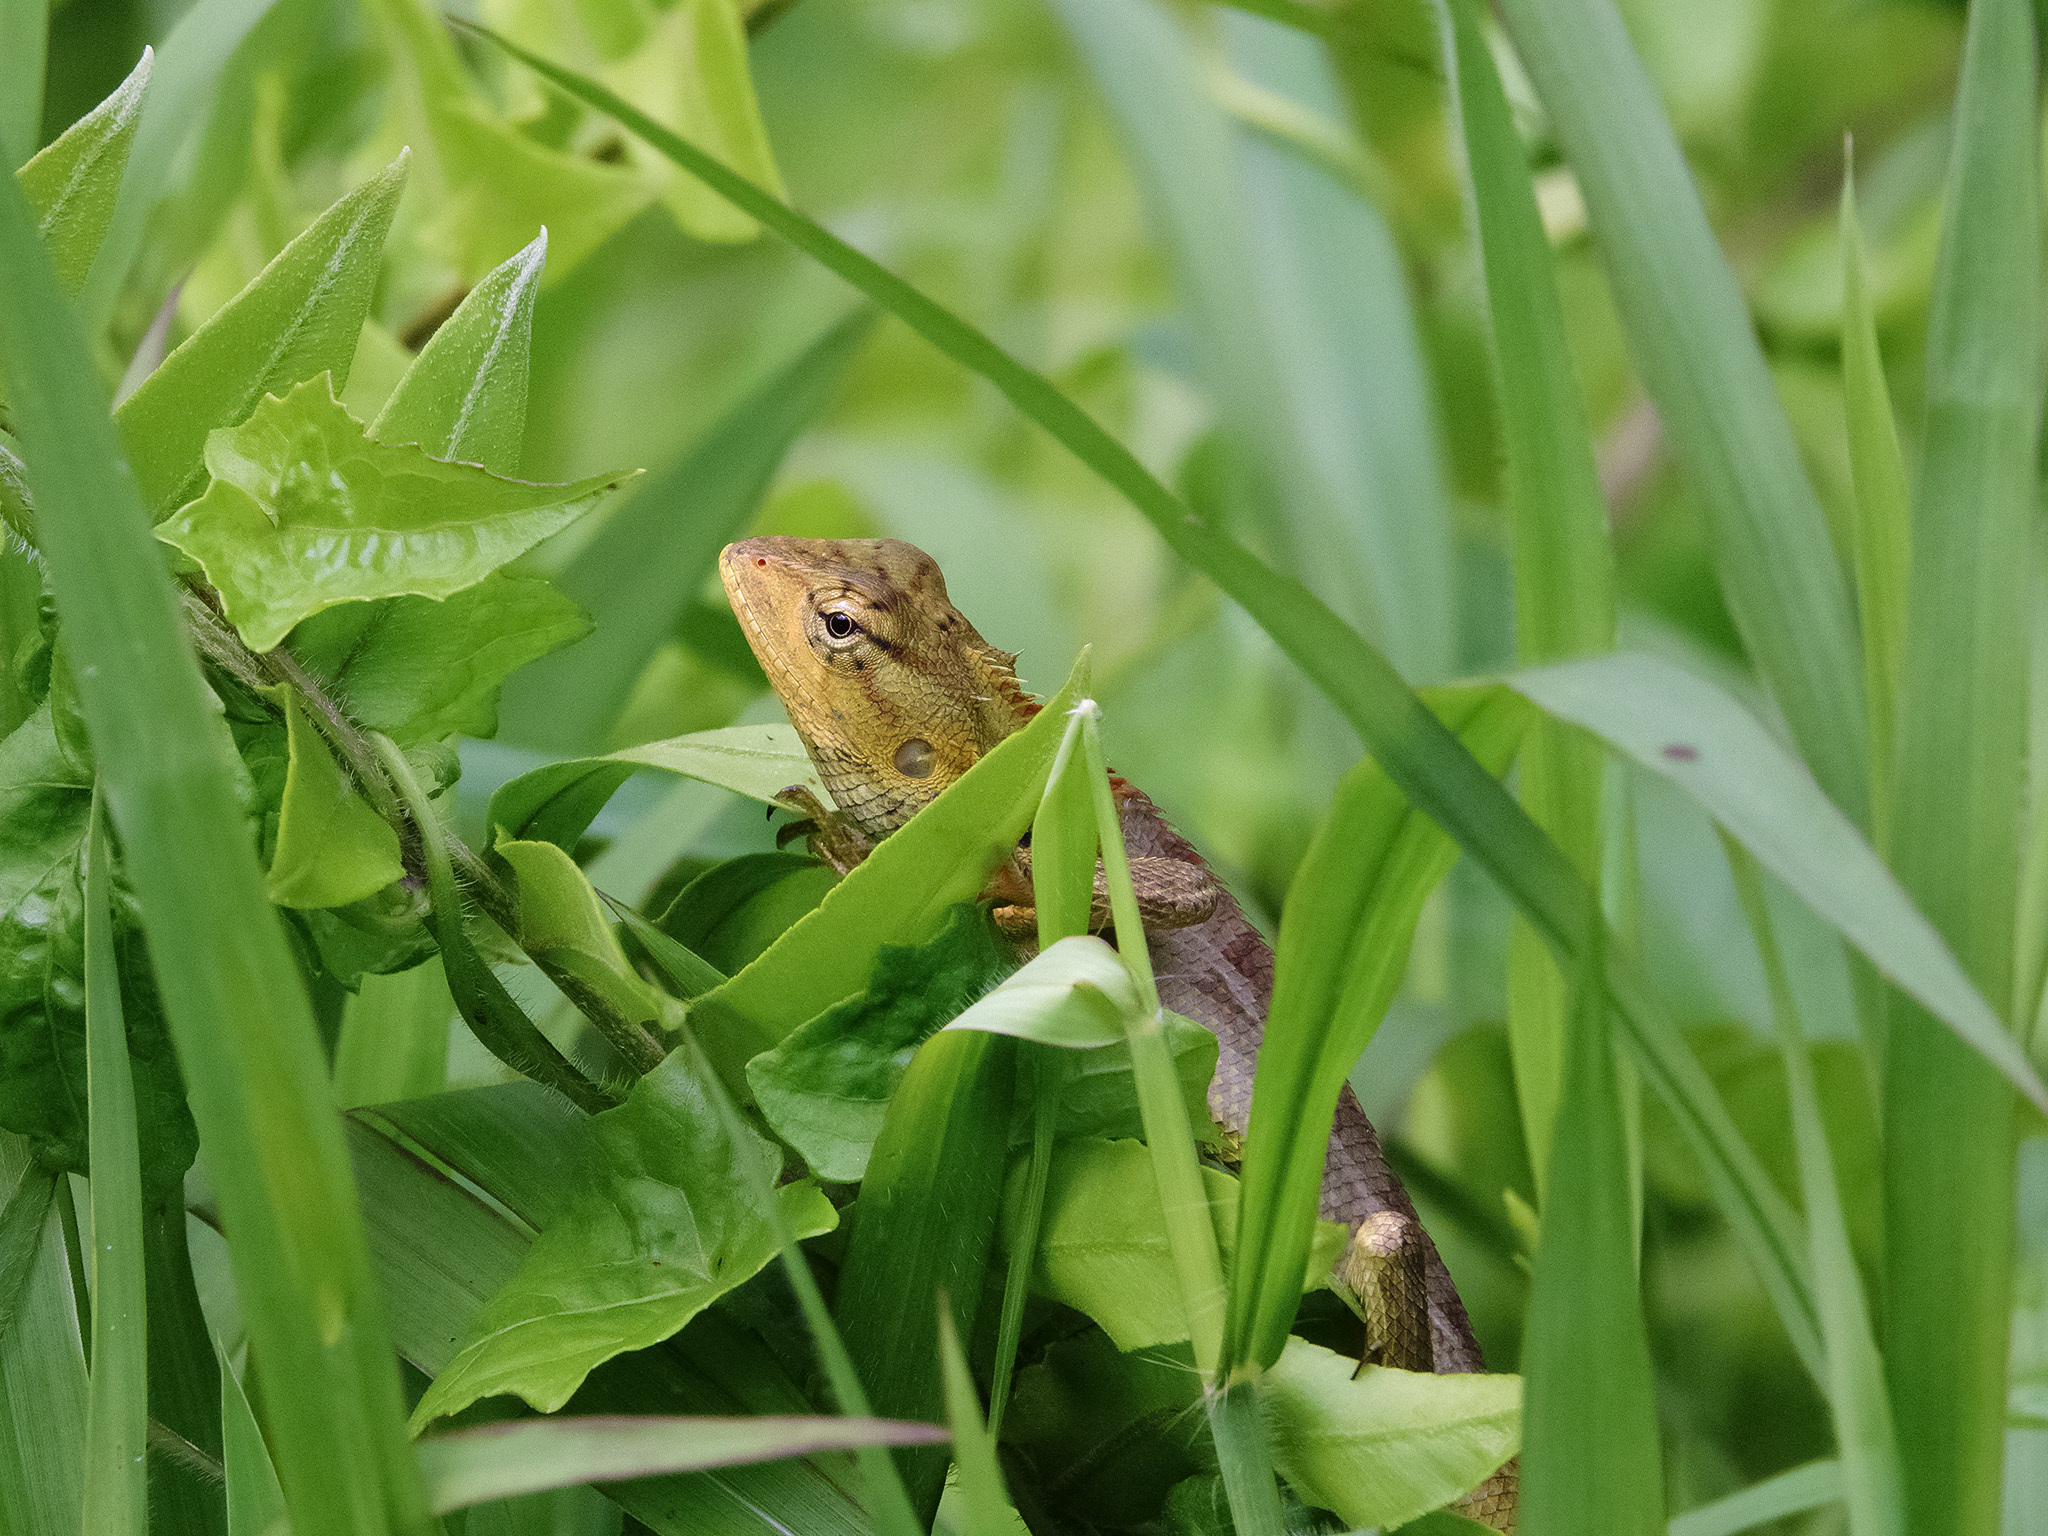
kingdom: Animalia
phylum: Chordata
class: Squamata
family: Agamidae
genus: Calotes
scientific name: Calotes versicolor
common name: Oriental garden lizard
